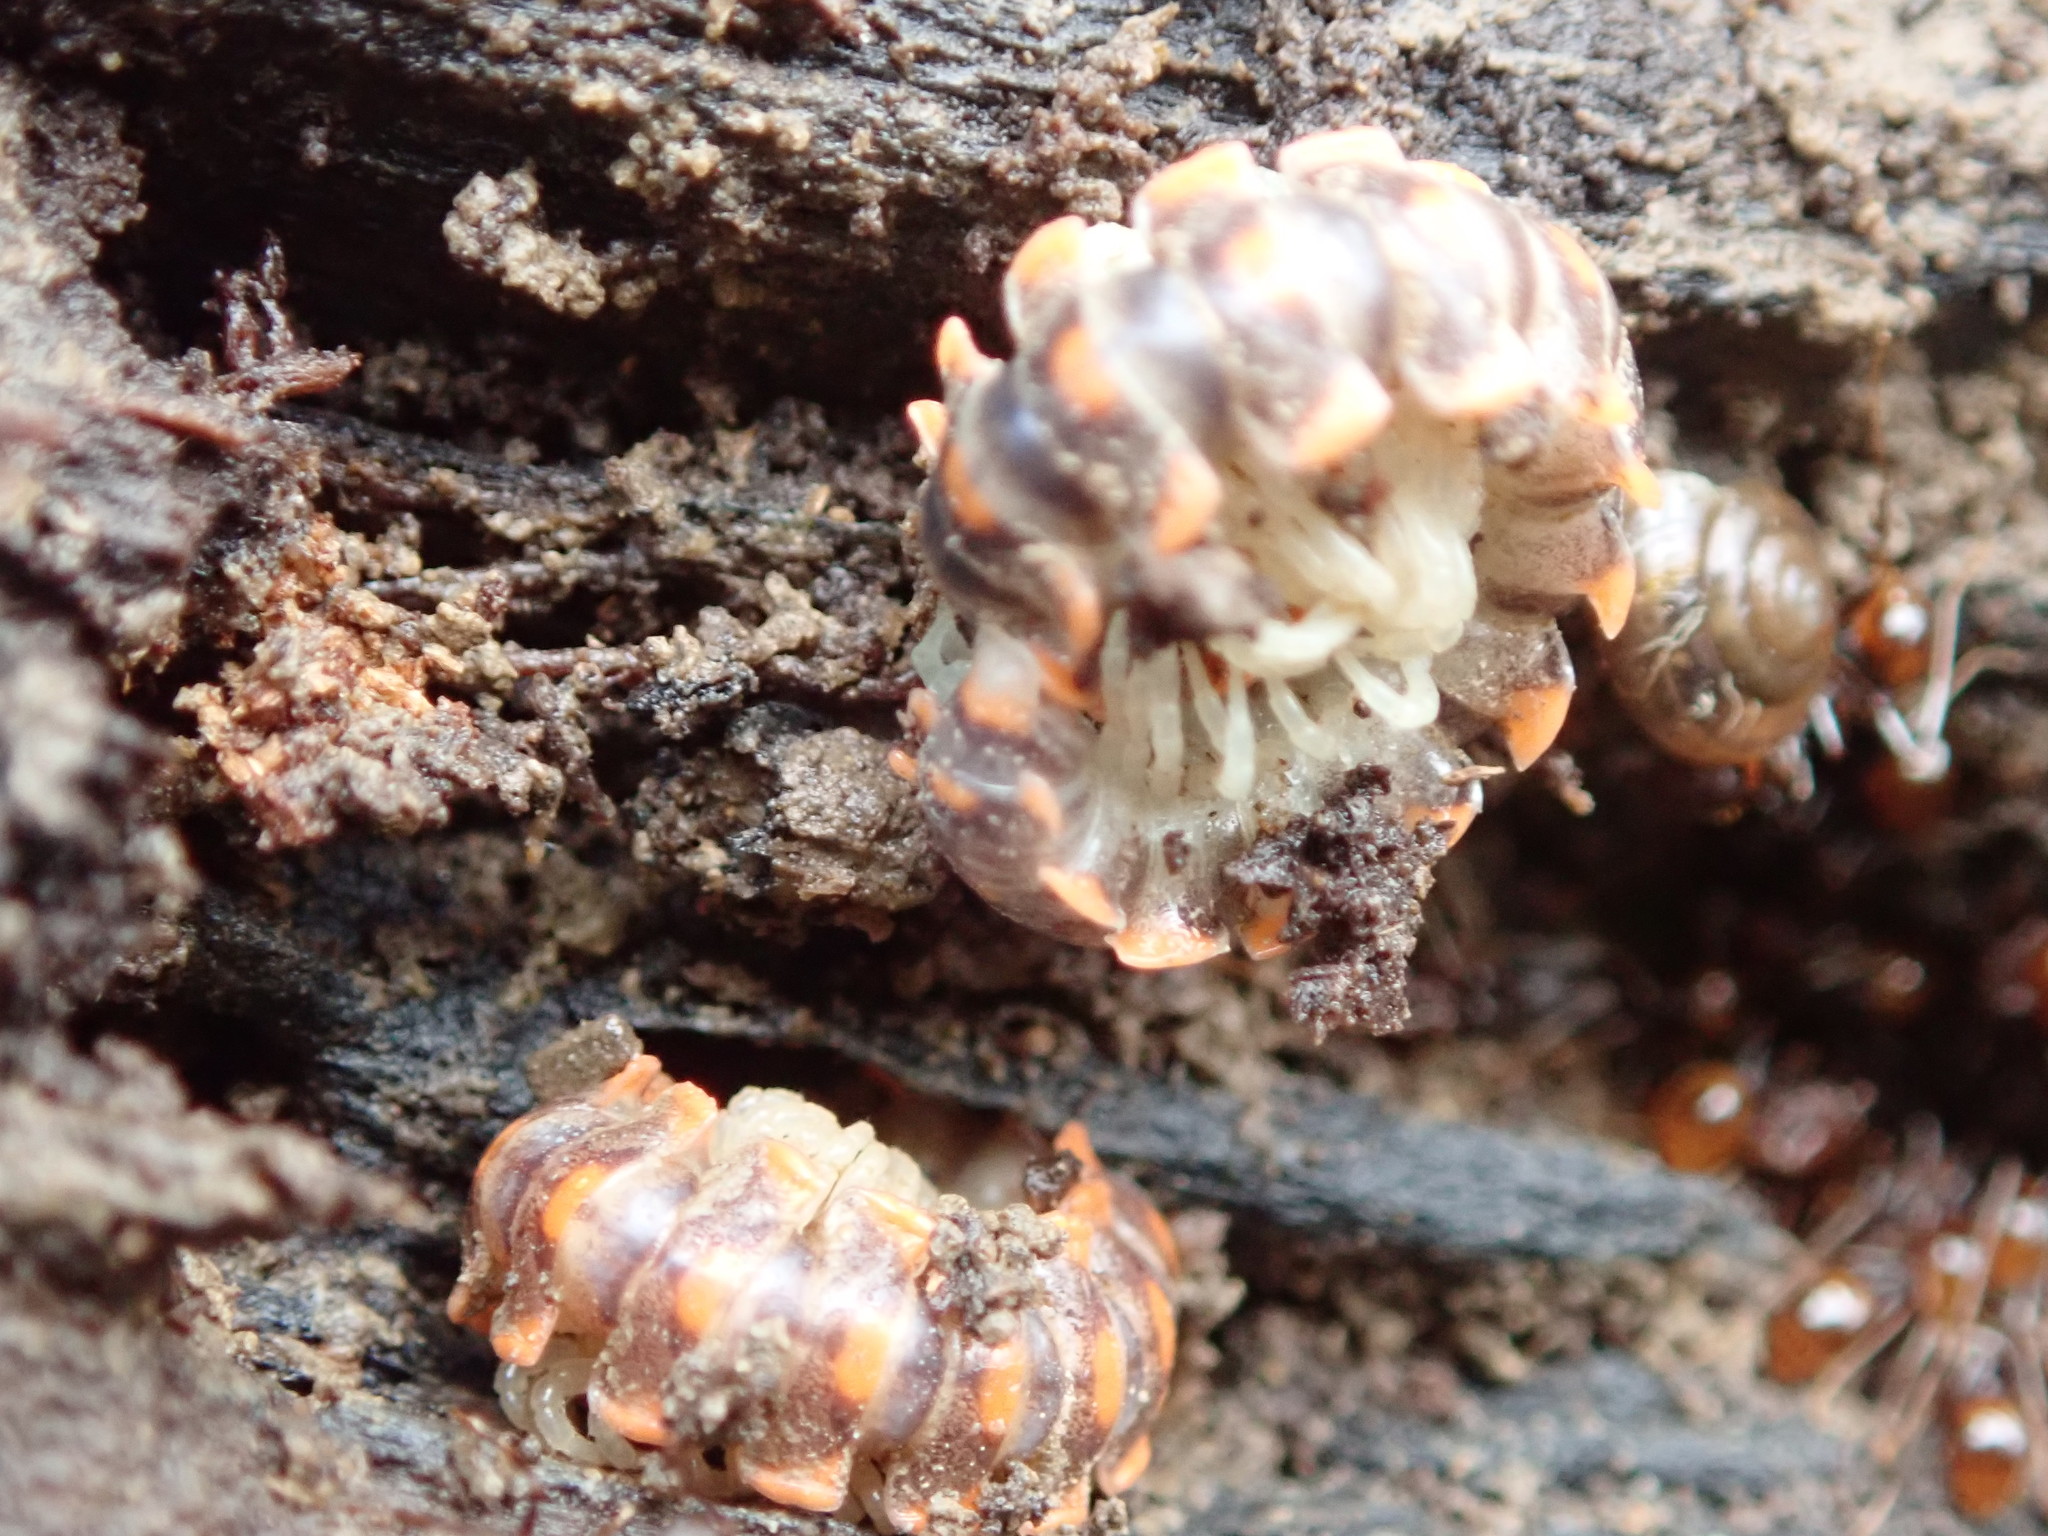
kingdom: Animalia
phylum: Arthropoda
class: Diplopoda
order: Polydesmida
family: Xystodesmidae
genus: Euryurus
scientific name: Euryurus leachii
